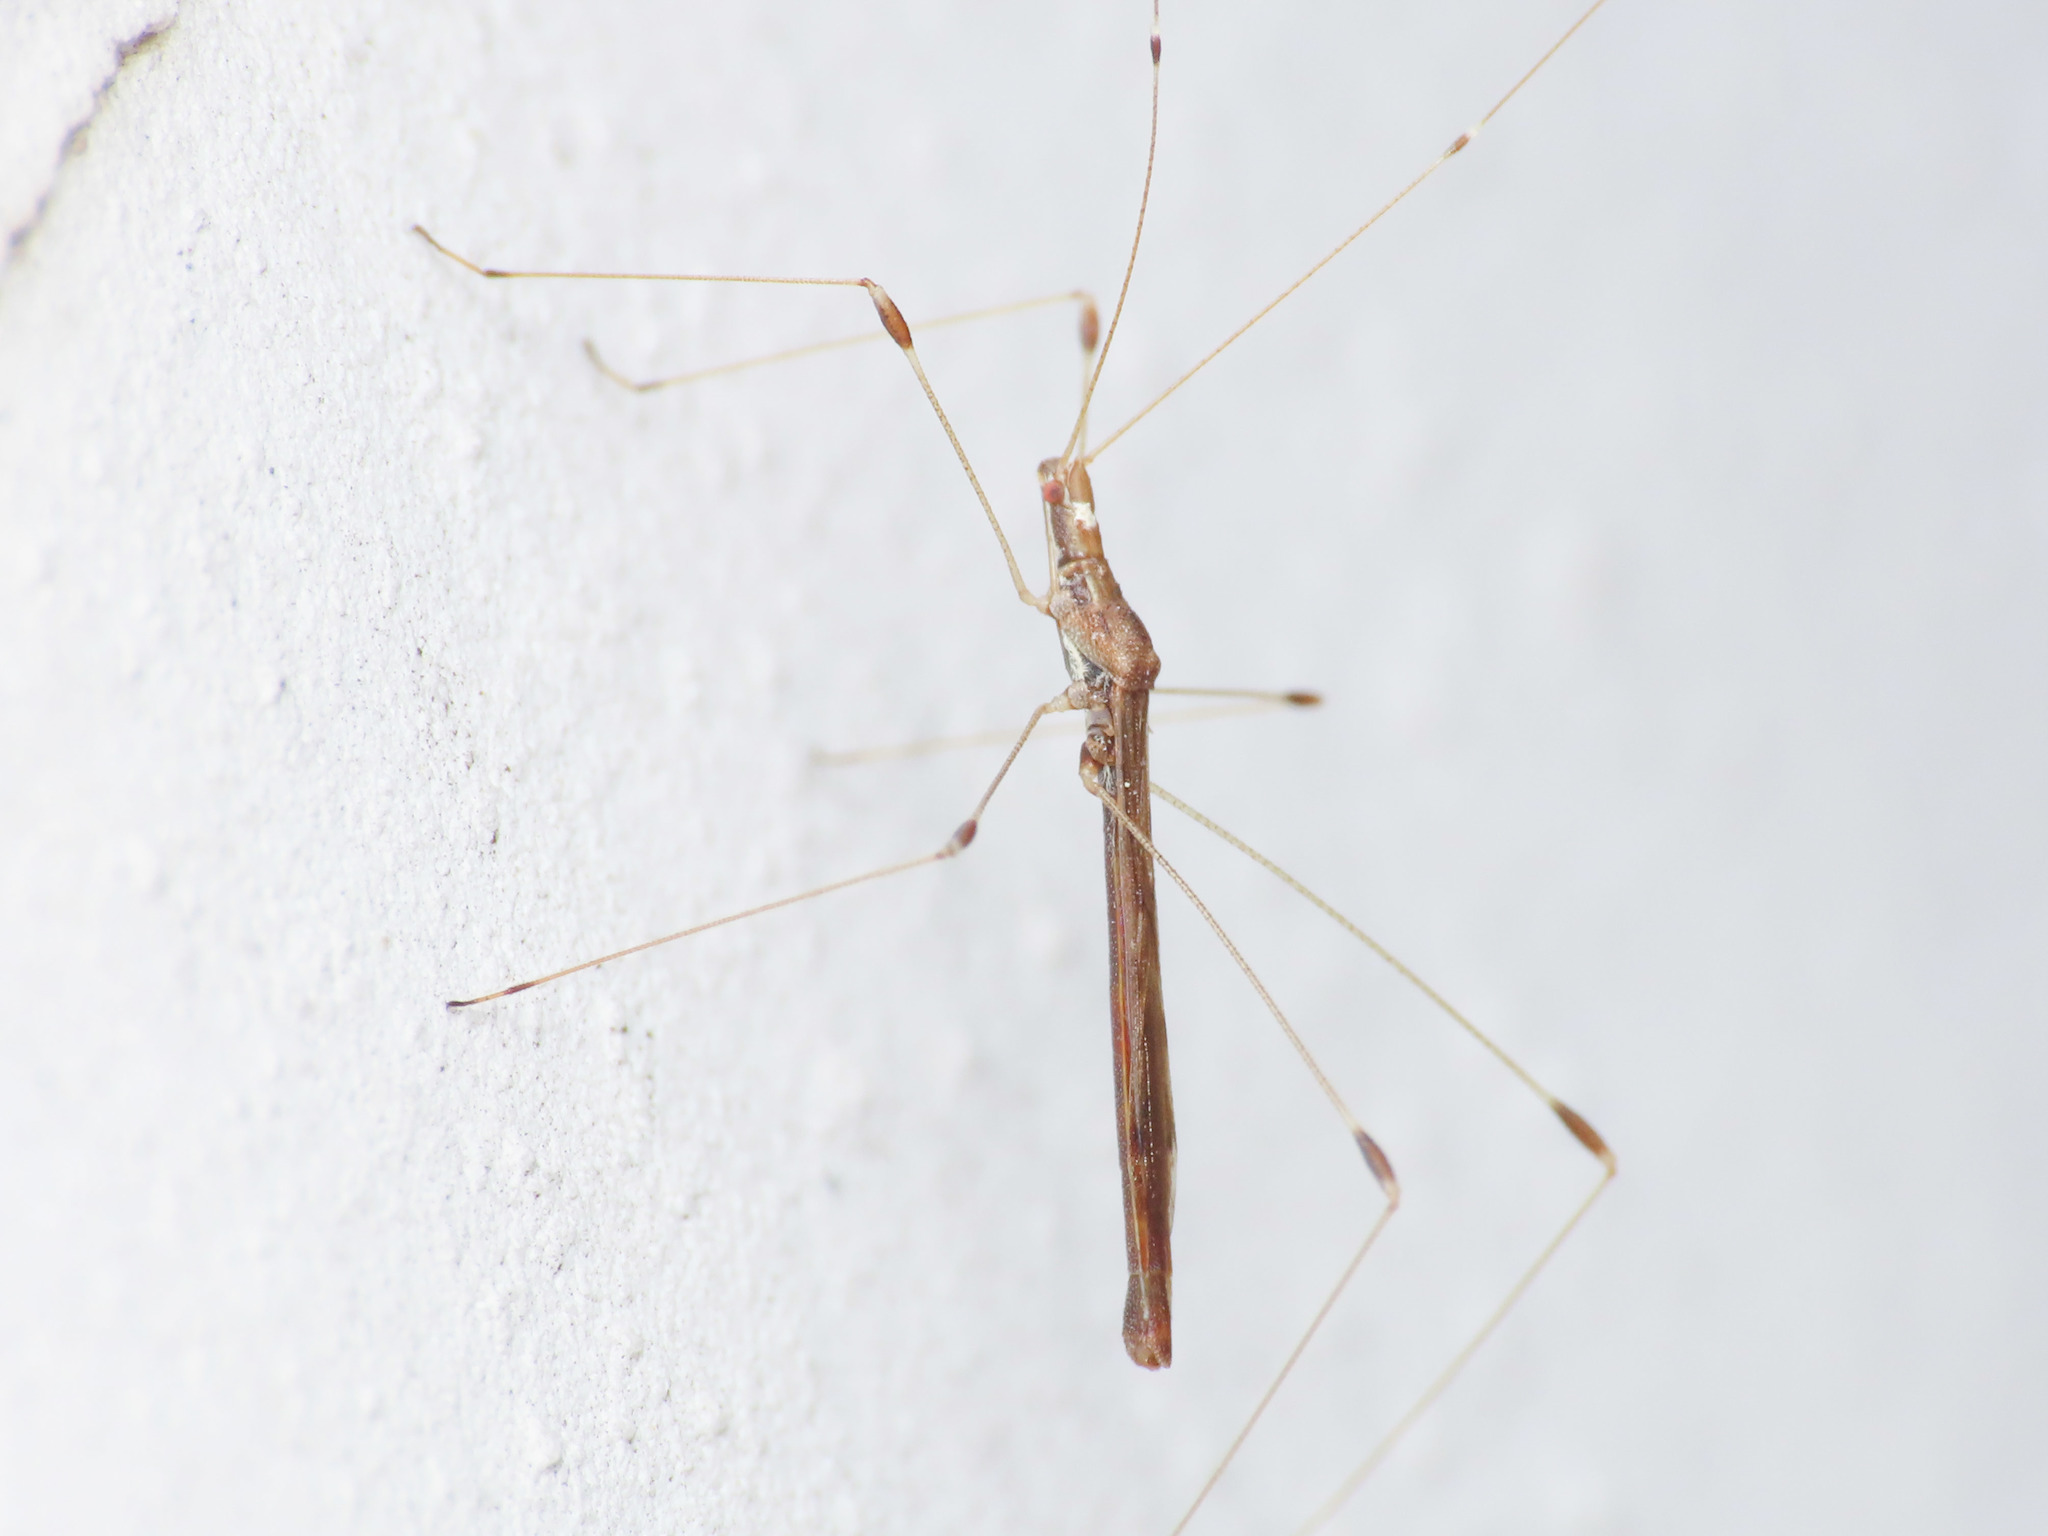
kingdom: Animalia
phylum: Arthropoda
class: Insecta
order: Hemiptera
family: Berytidae
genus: Apoplymus
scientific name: Apoplymus pectoralis
